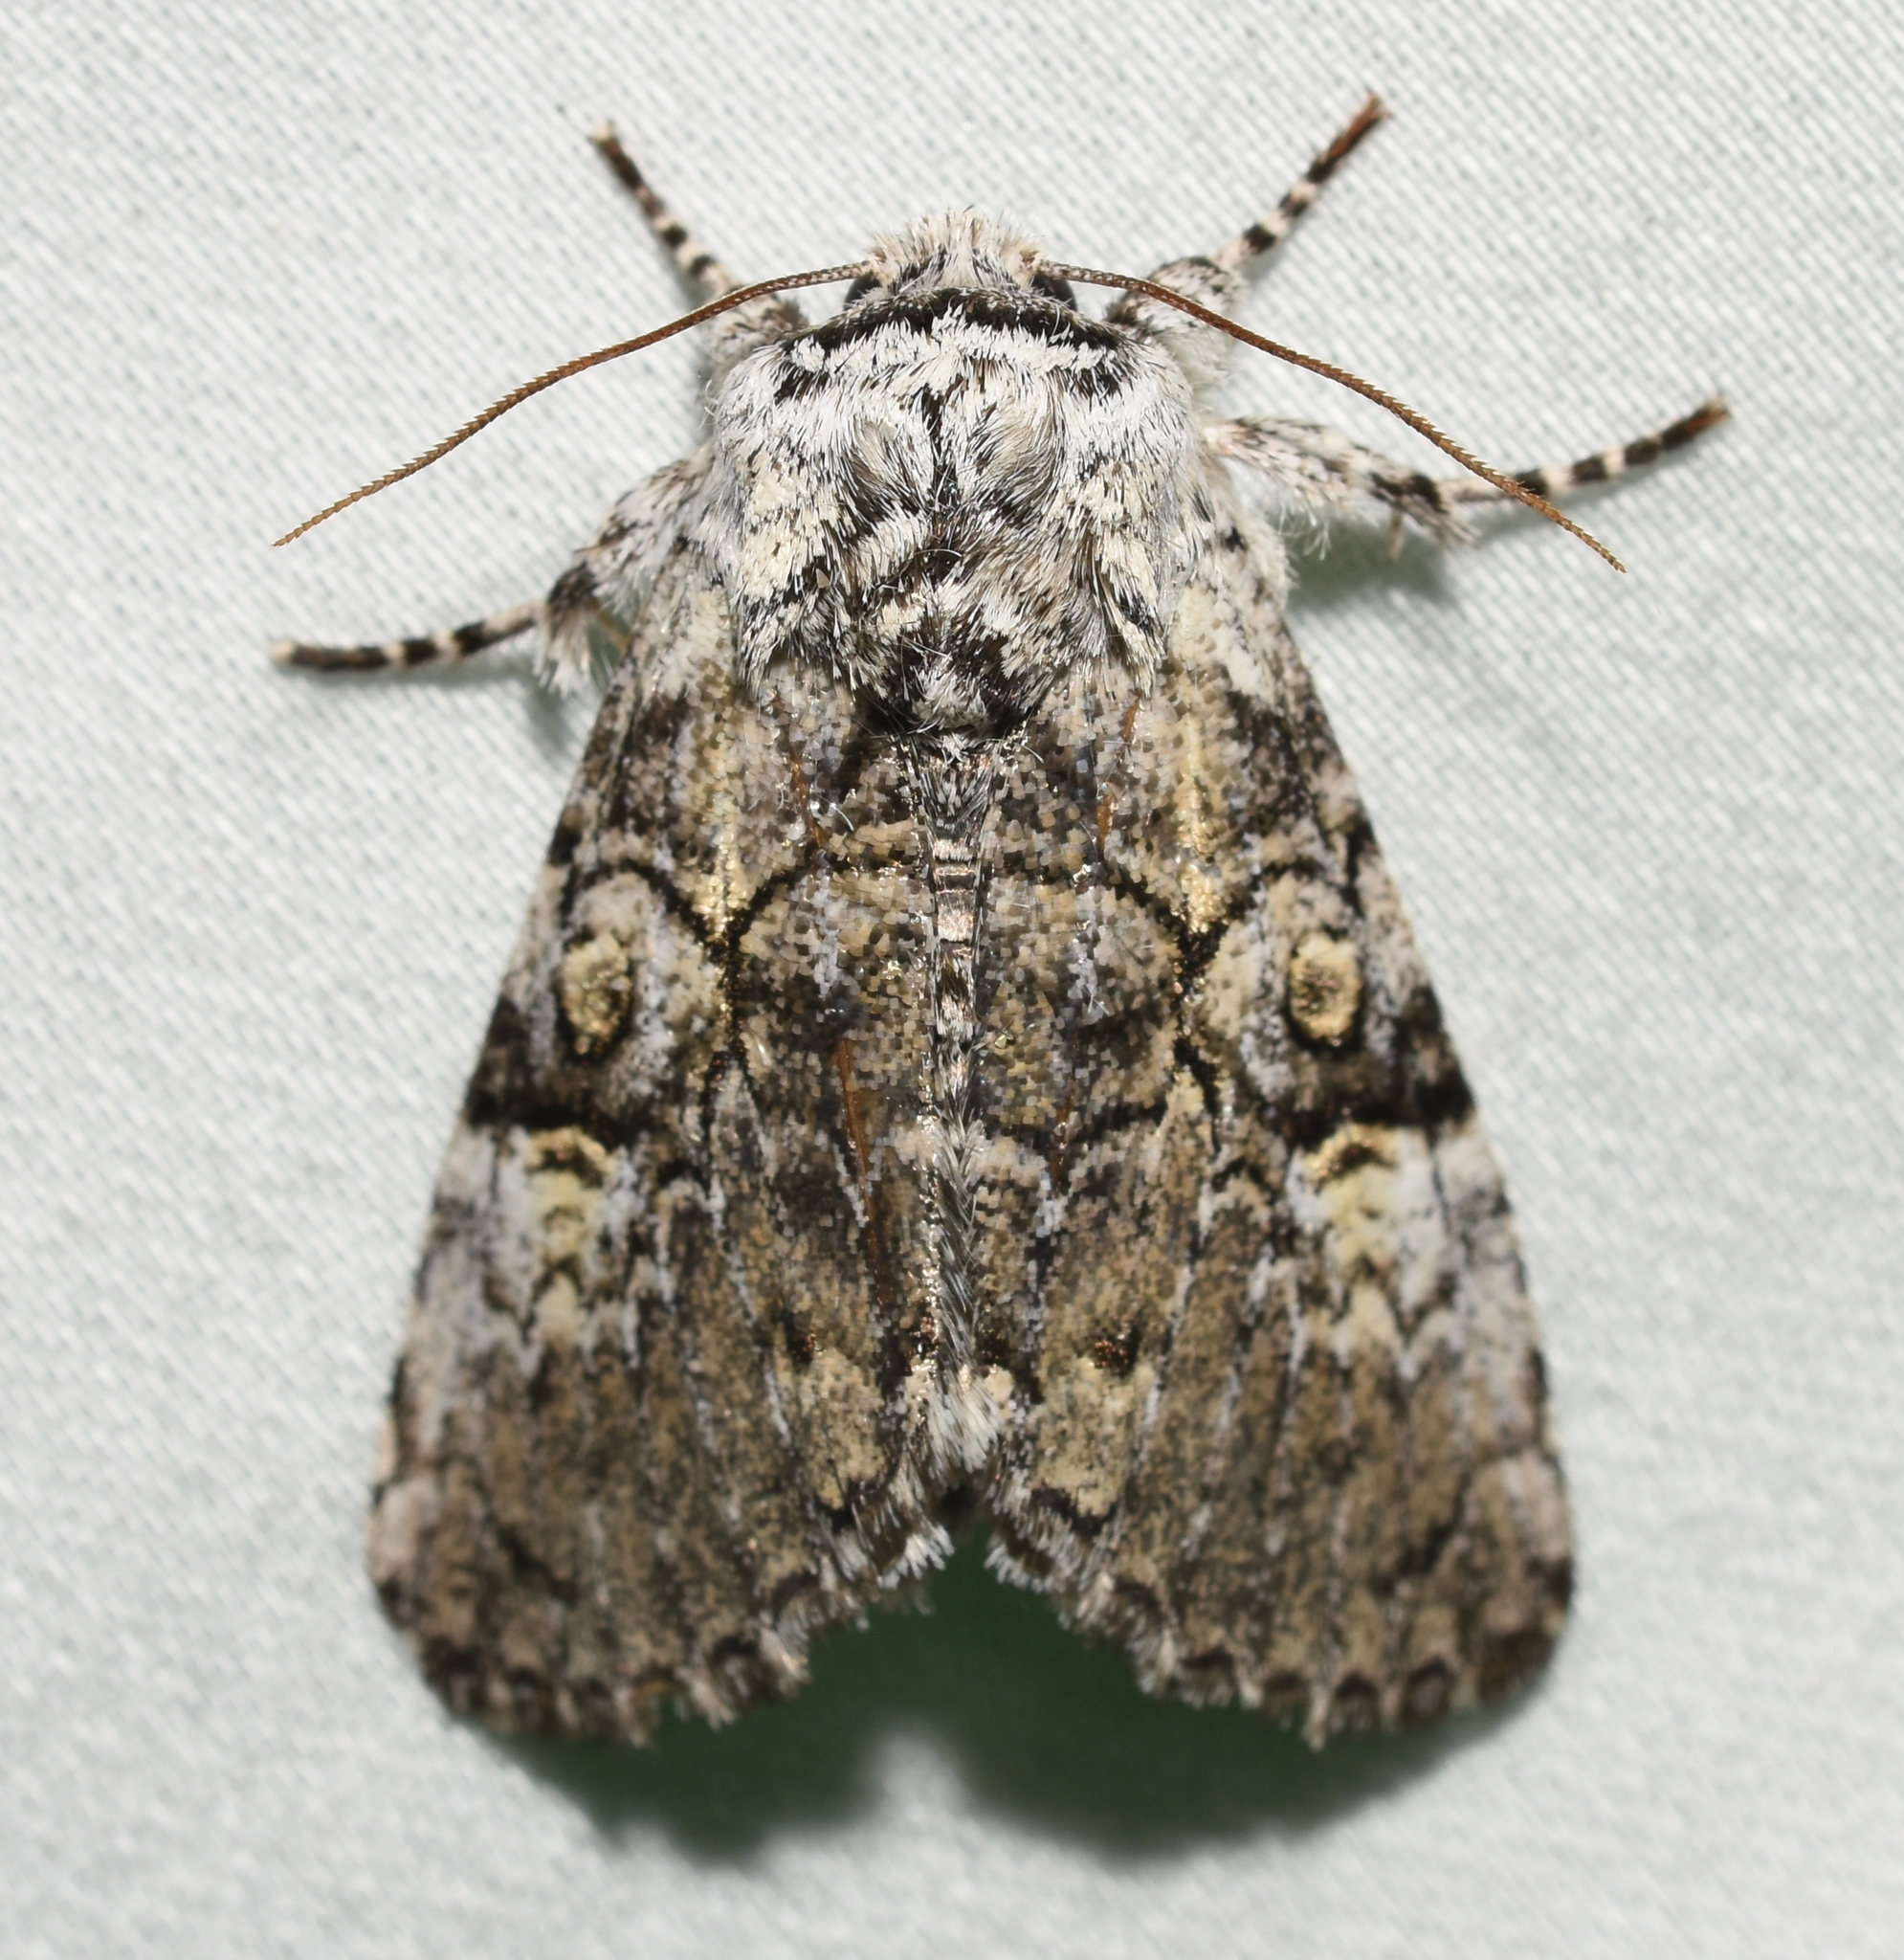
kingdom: Animalia
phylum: Arthropoda
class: Insecta
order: Lepidoptera
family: Noctuidae
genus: Charadra
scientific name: Charadra deridens
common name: Marbled tuffet
